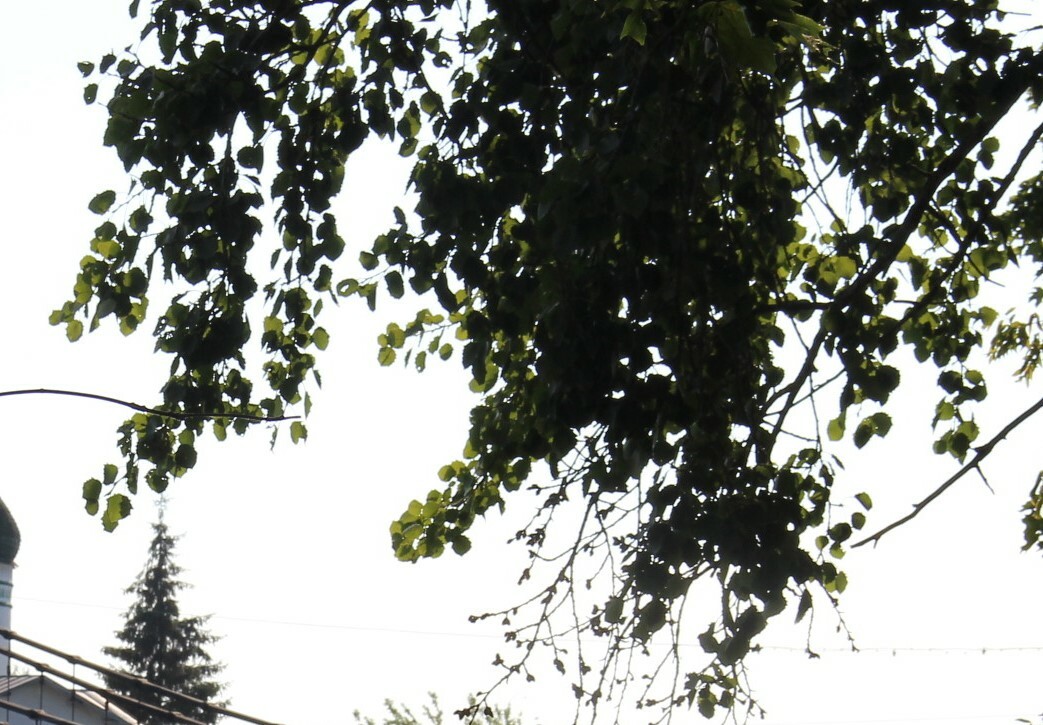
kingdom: Plantae
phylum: Tracheophyta
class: Magnoliopsida
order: Malpighiales
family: Salicaceae
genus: Populus
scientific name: Populus tremula
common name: European aspen
